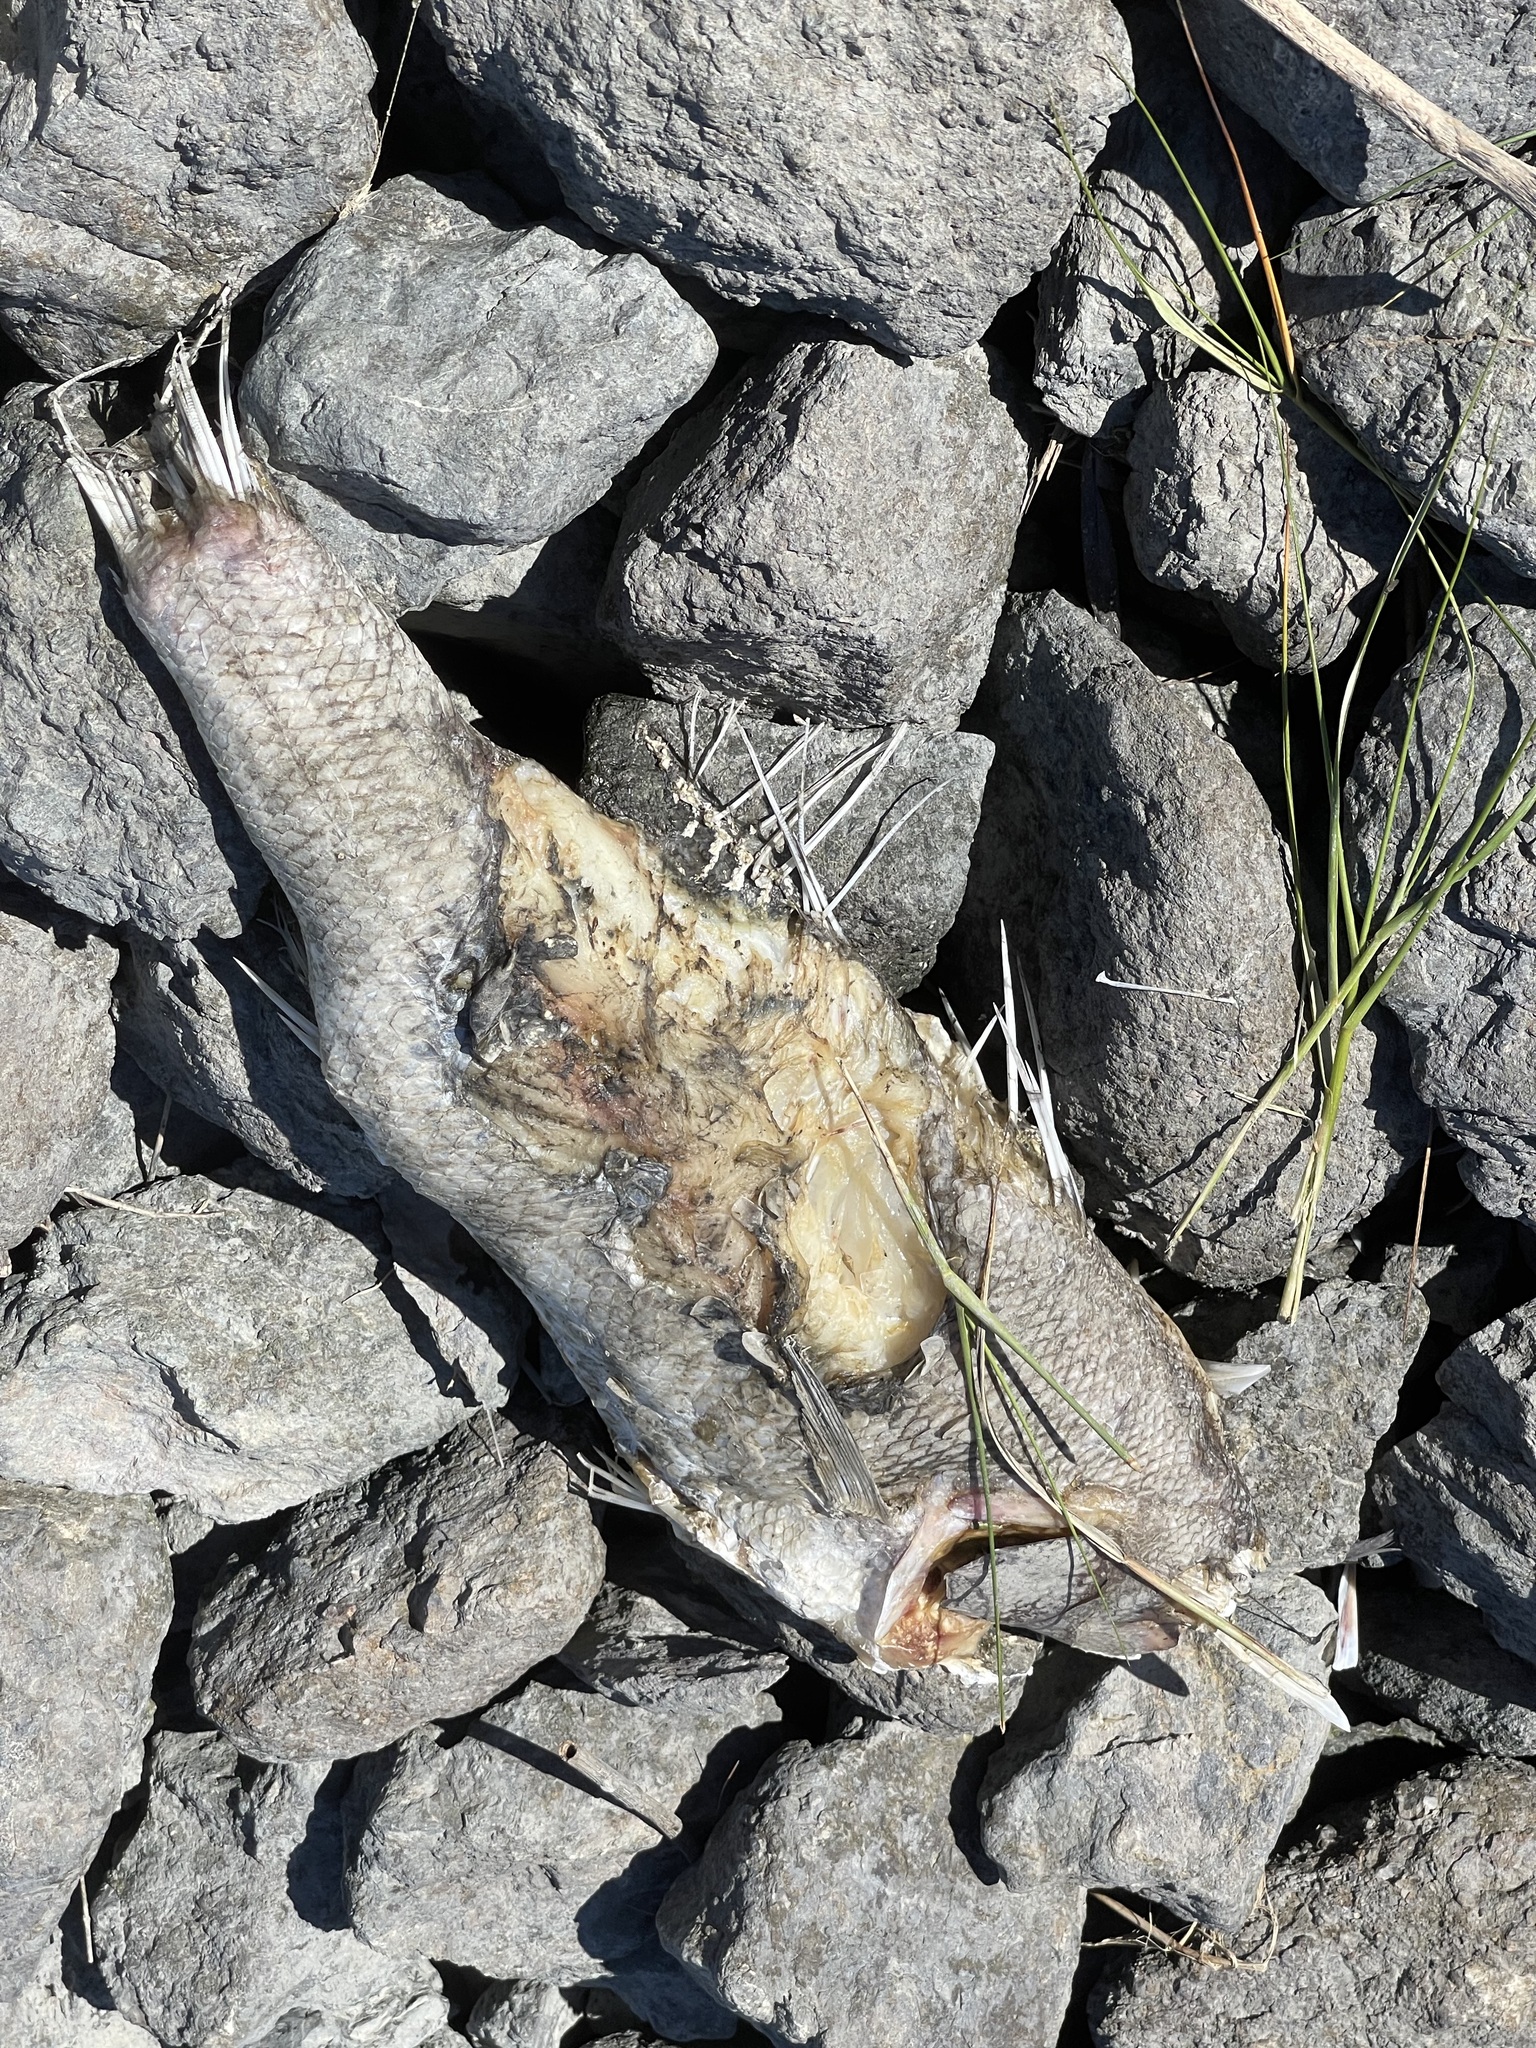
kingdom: Animalia
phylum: Chordata
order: Perciformes
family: Moronidae
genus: Morone
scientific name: Morone saxatilis
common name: Striped bass
